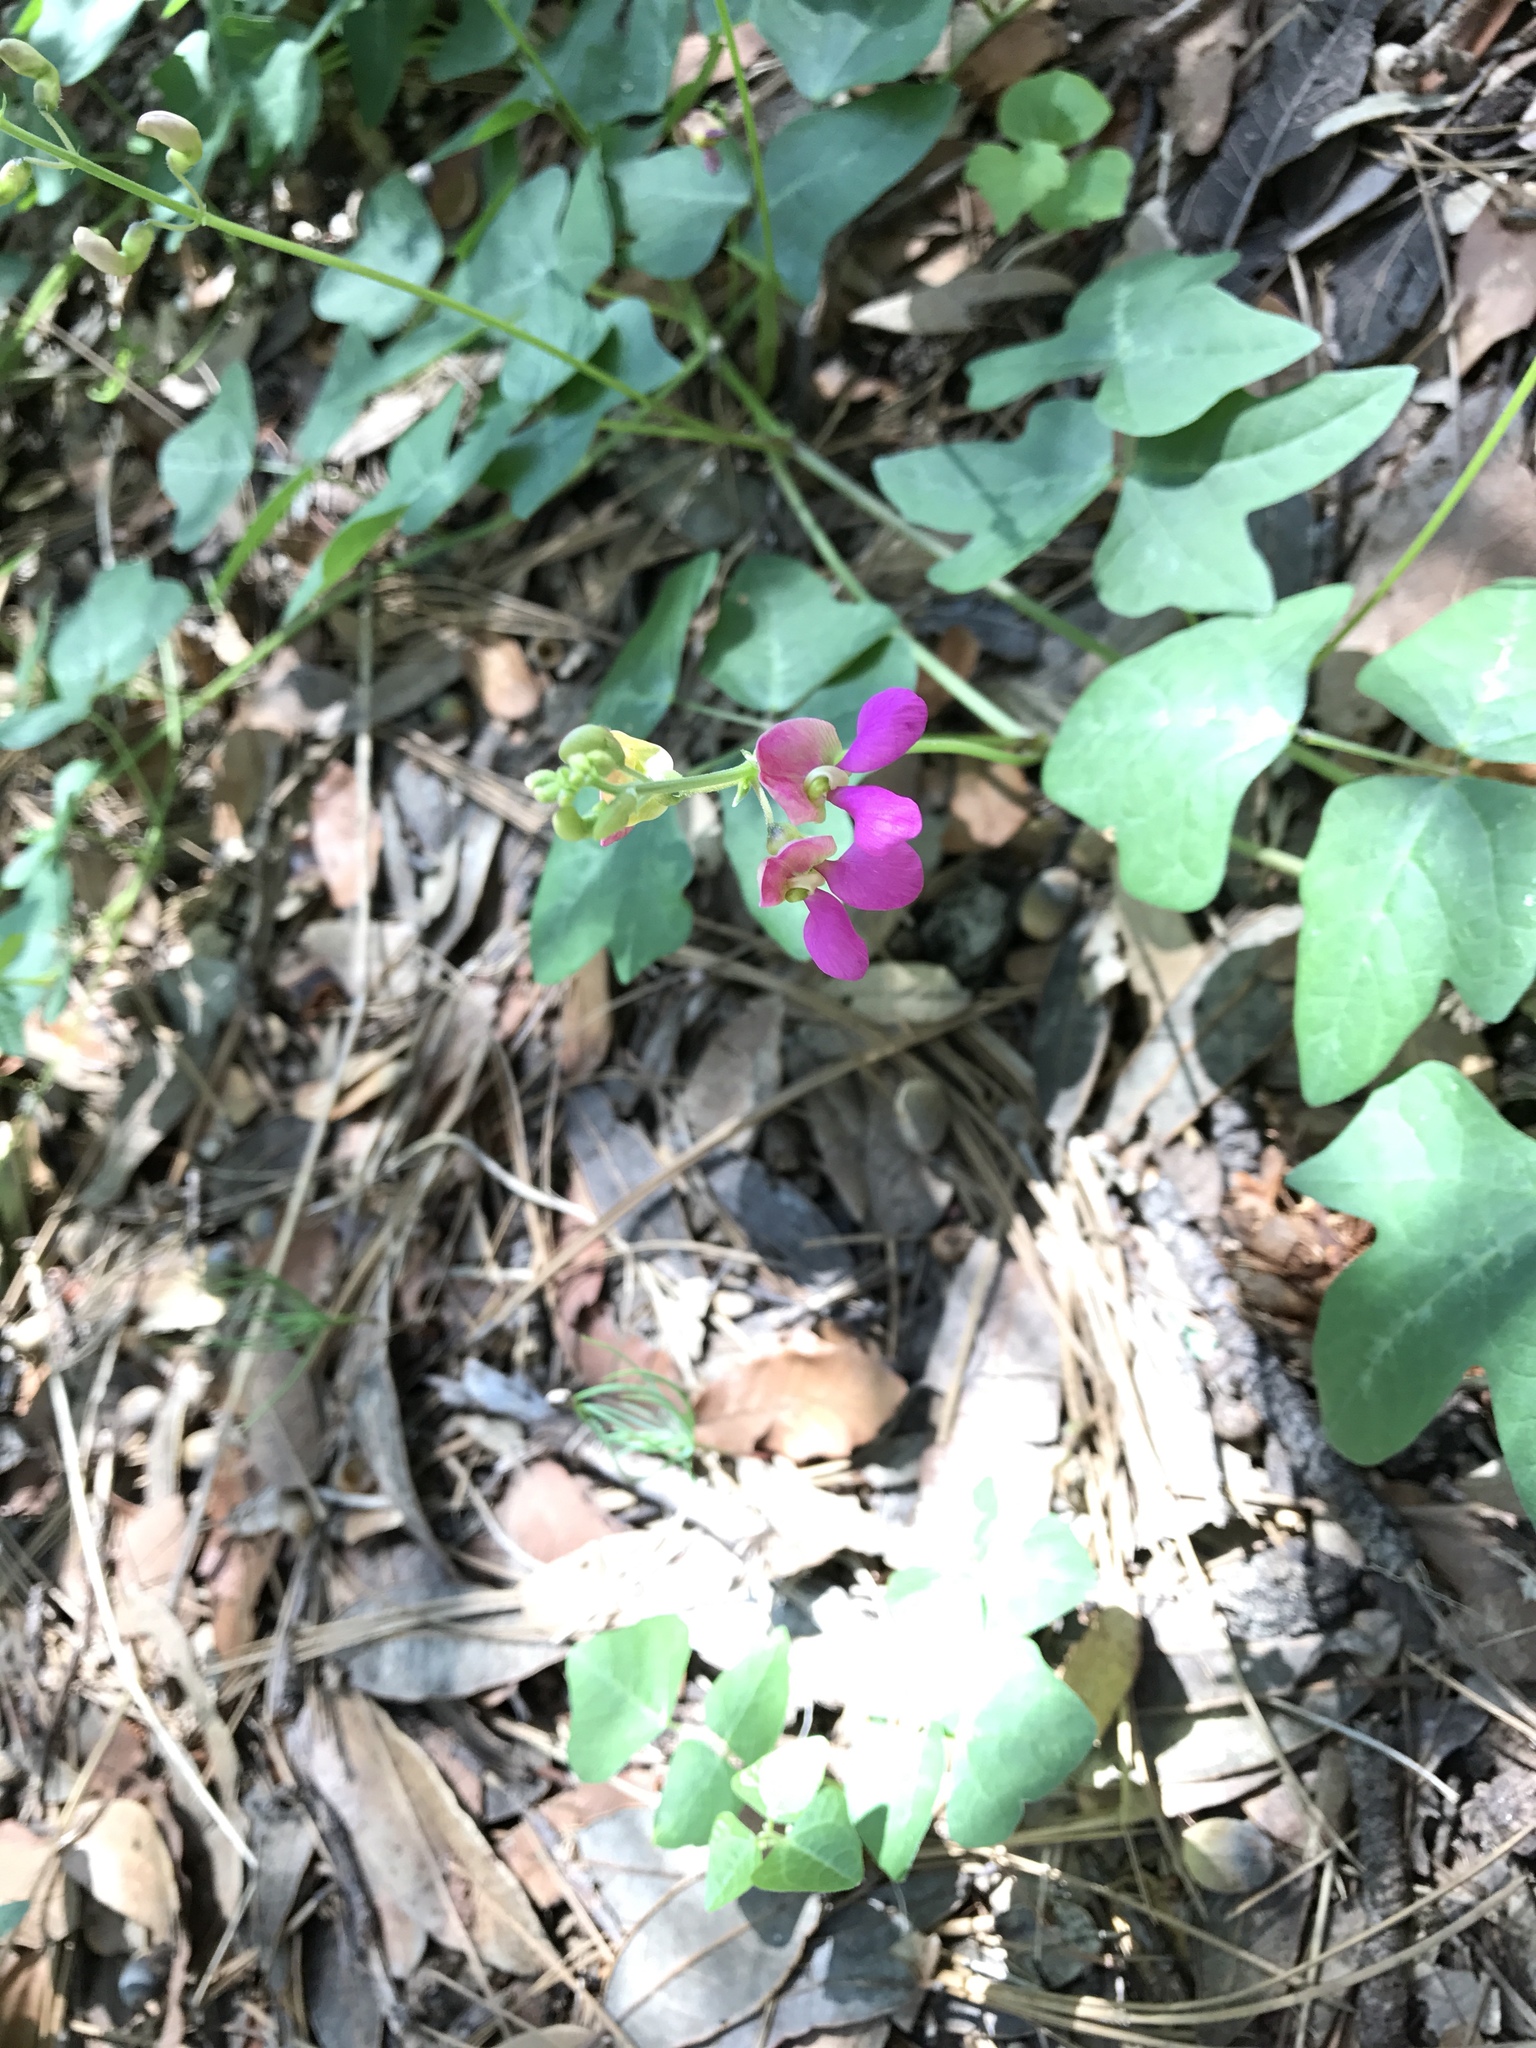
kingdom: Plantae
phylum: Tracheophyta
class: Magnoliopsida
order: Fabales
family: Fabaceae
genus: Phaseolus
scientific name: Phaseolus pedicellatus
